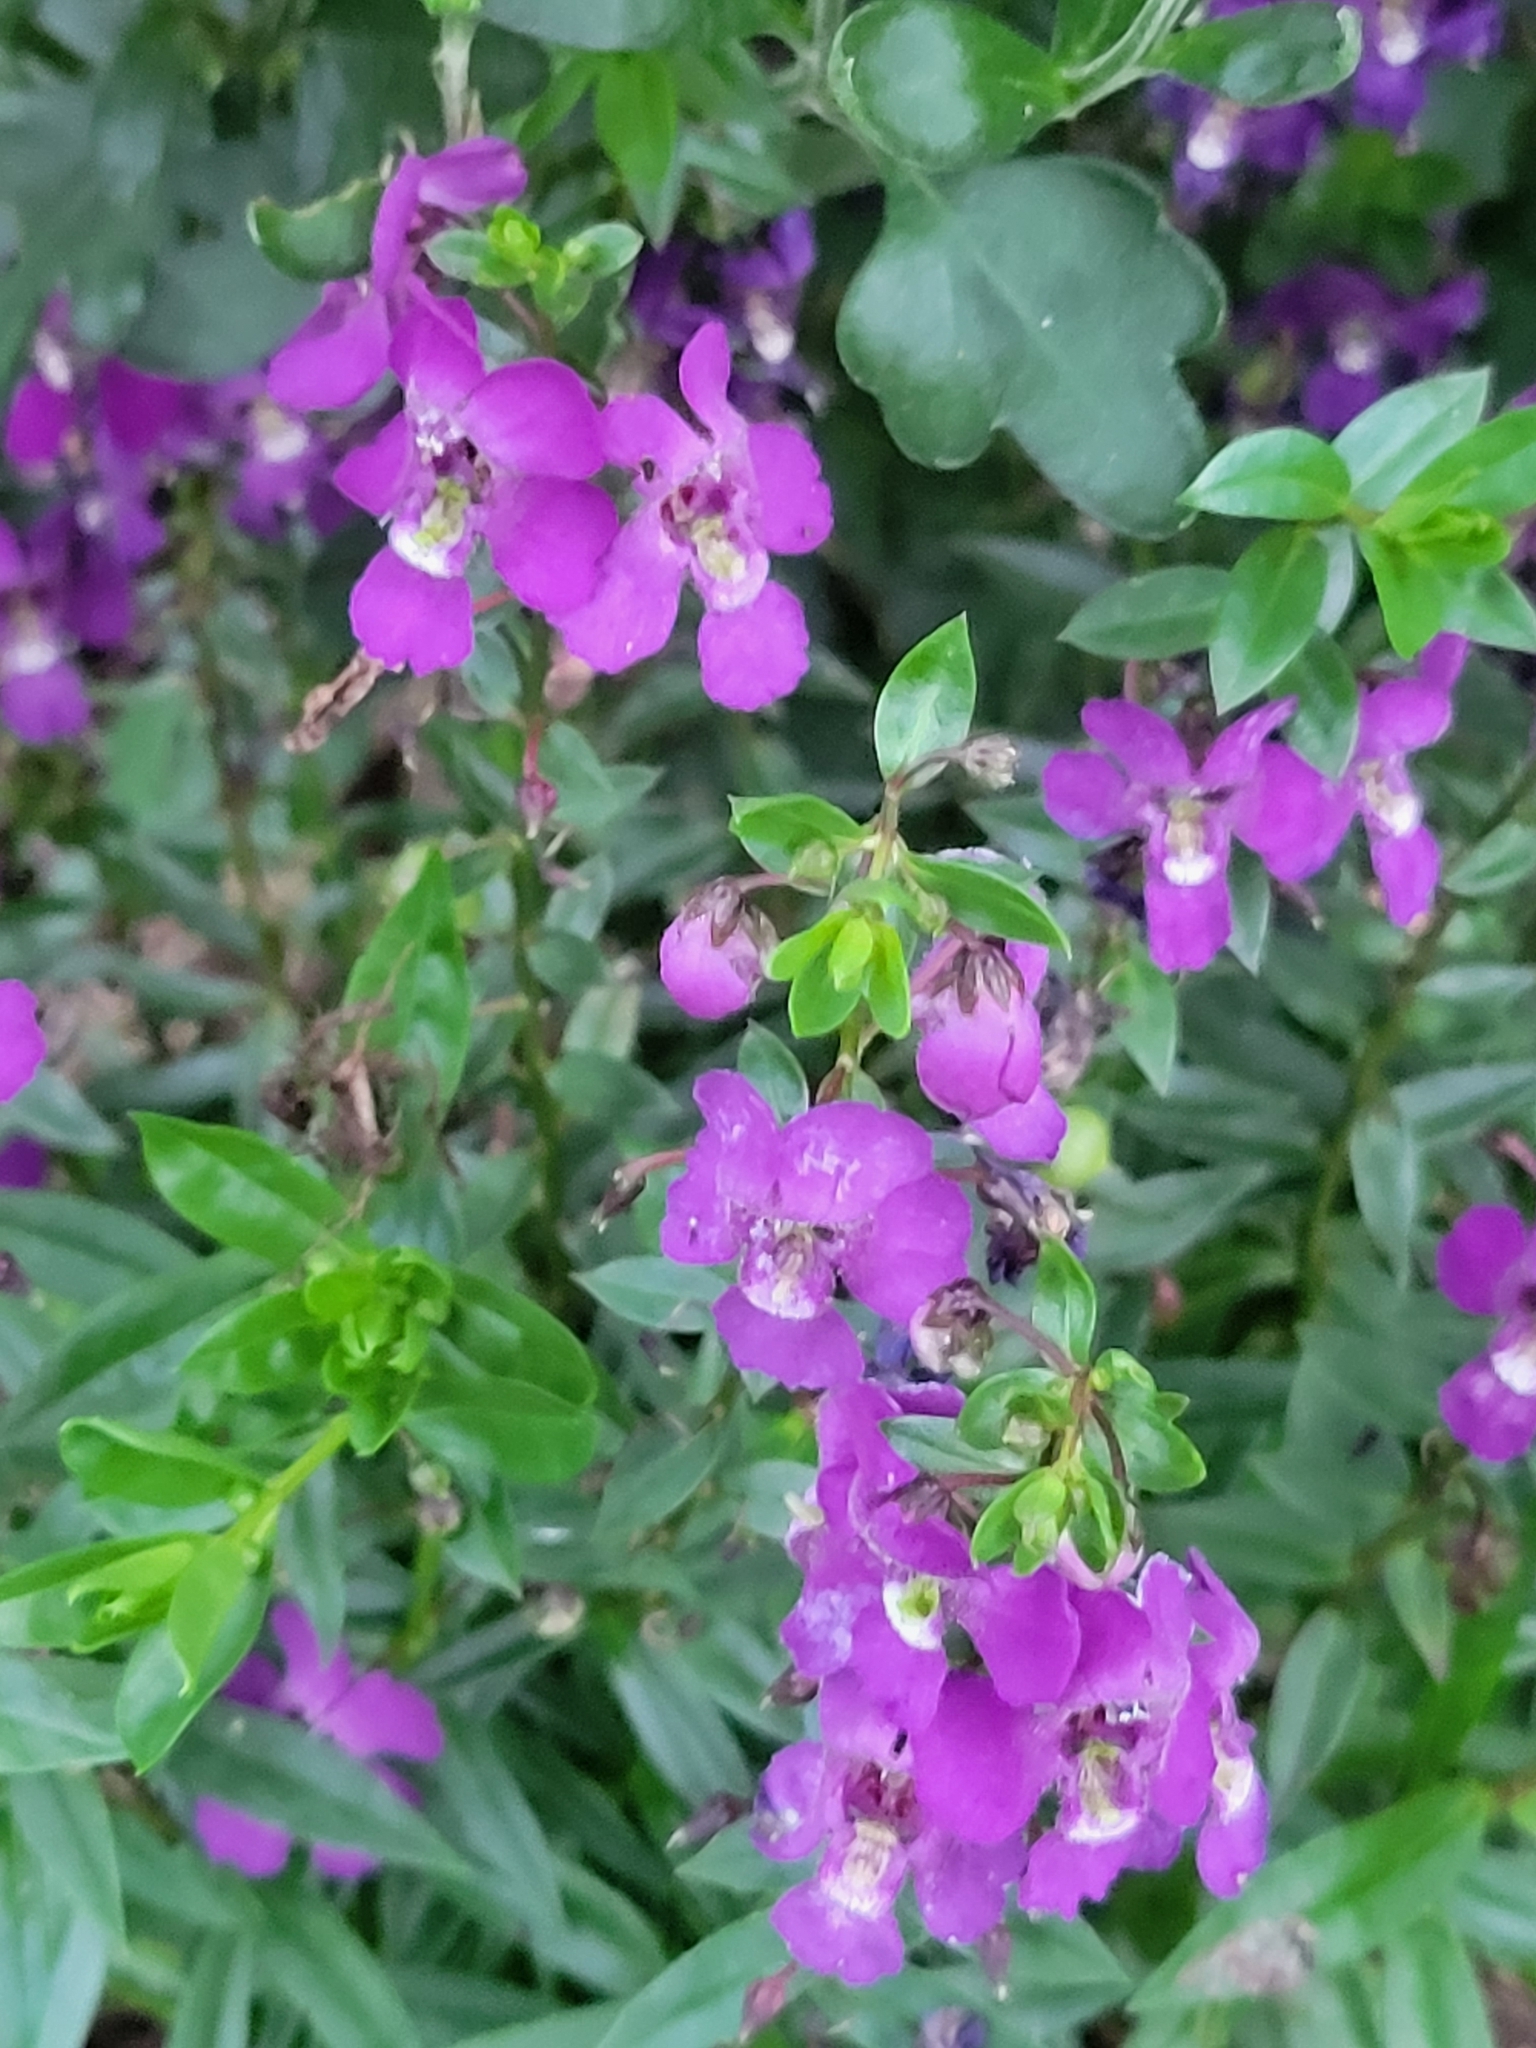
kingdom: Plantae
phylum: Tracheophyta
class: Magnoliopsida
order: Lamiales
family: Plantaginaceae
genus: Angelonia
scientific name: Angelonia salicariifolia
